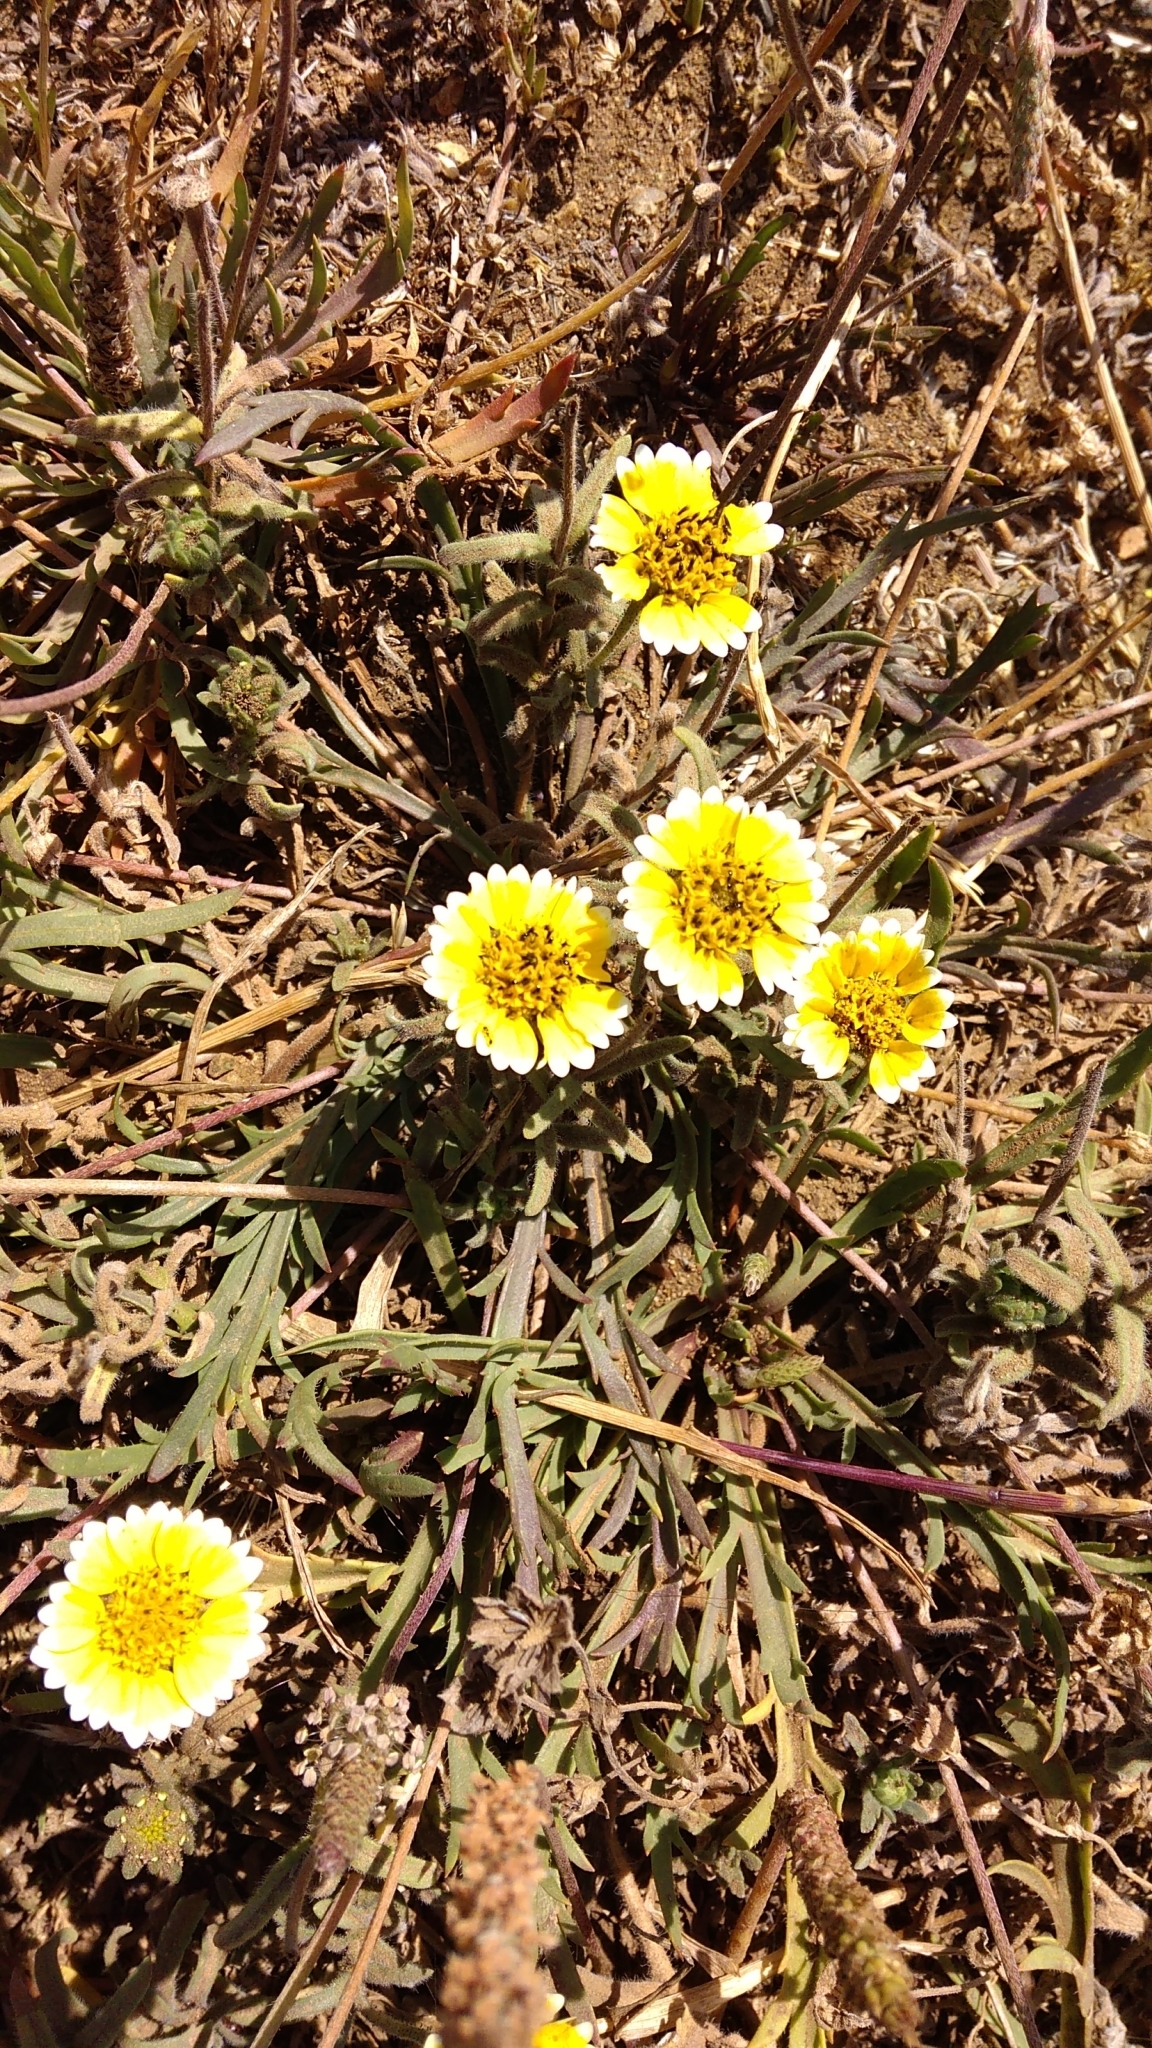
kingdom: Plantae
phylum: Tracheophyta
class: Magnoliopsida
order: Asterales
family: Asteraceae
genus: Layia
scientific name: Layia platyglossa
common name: Tidy-tips
